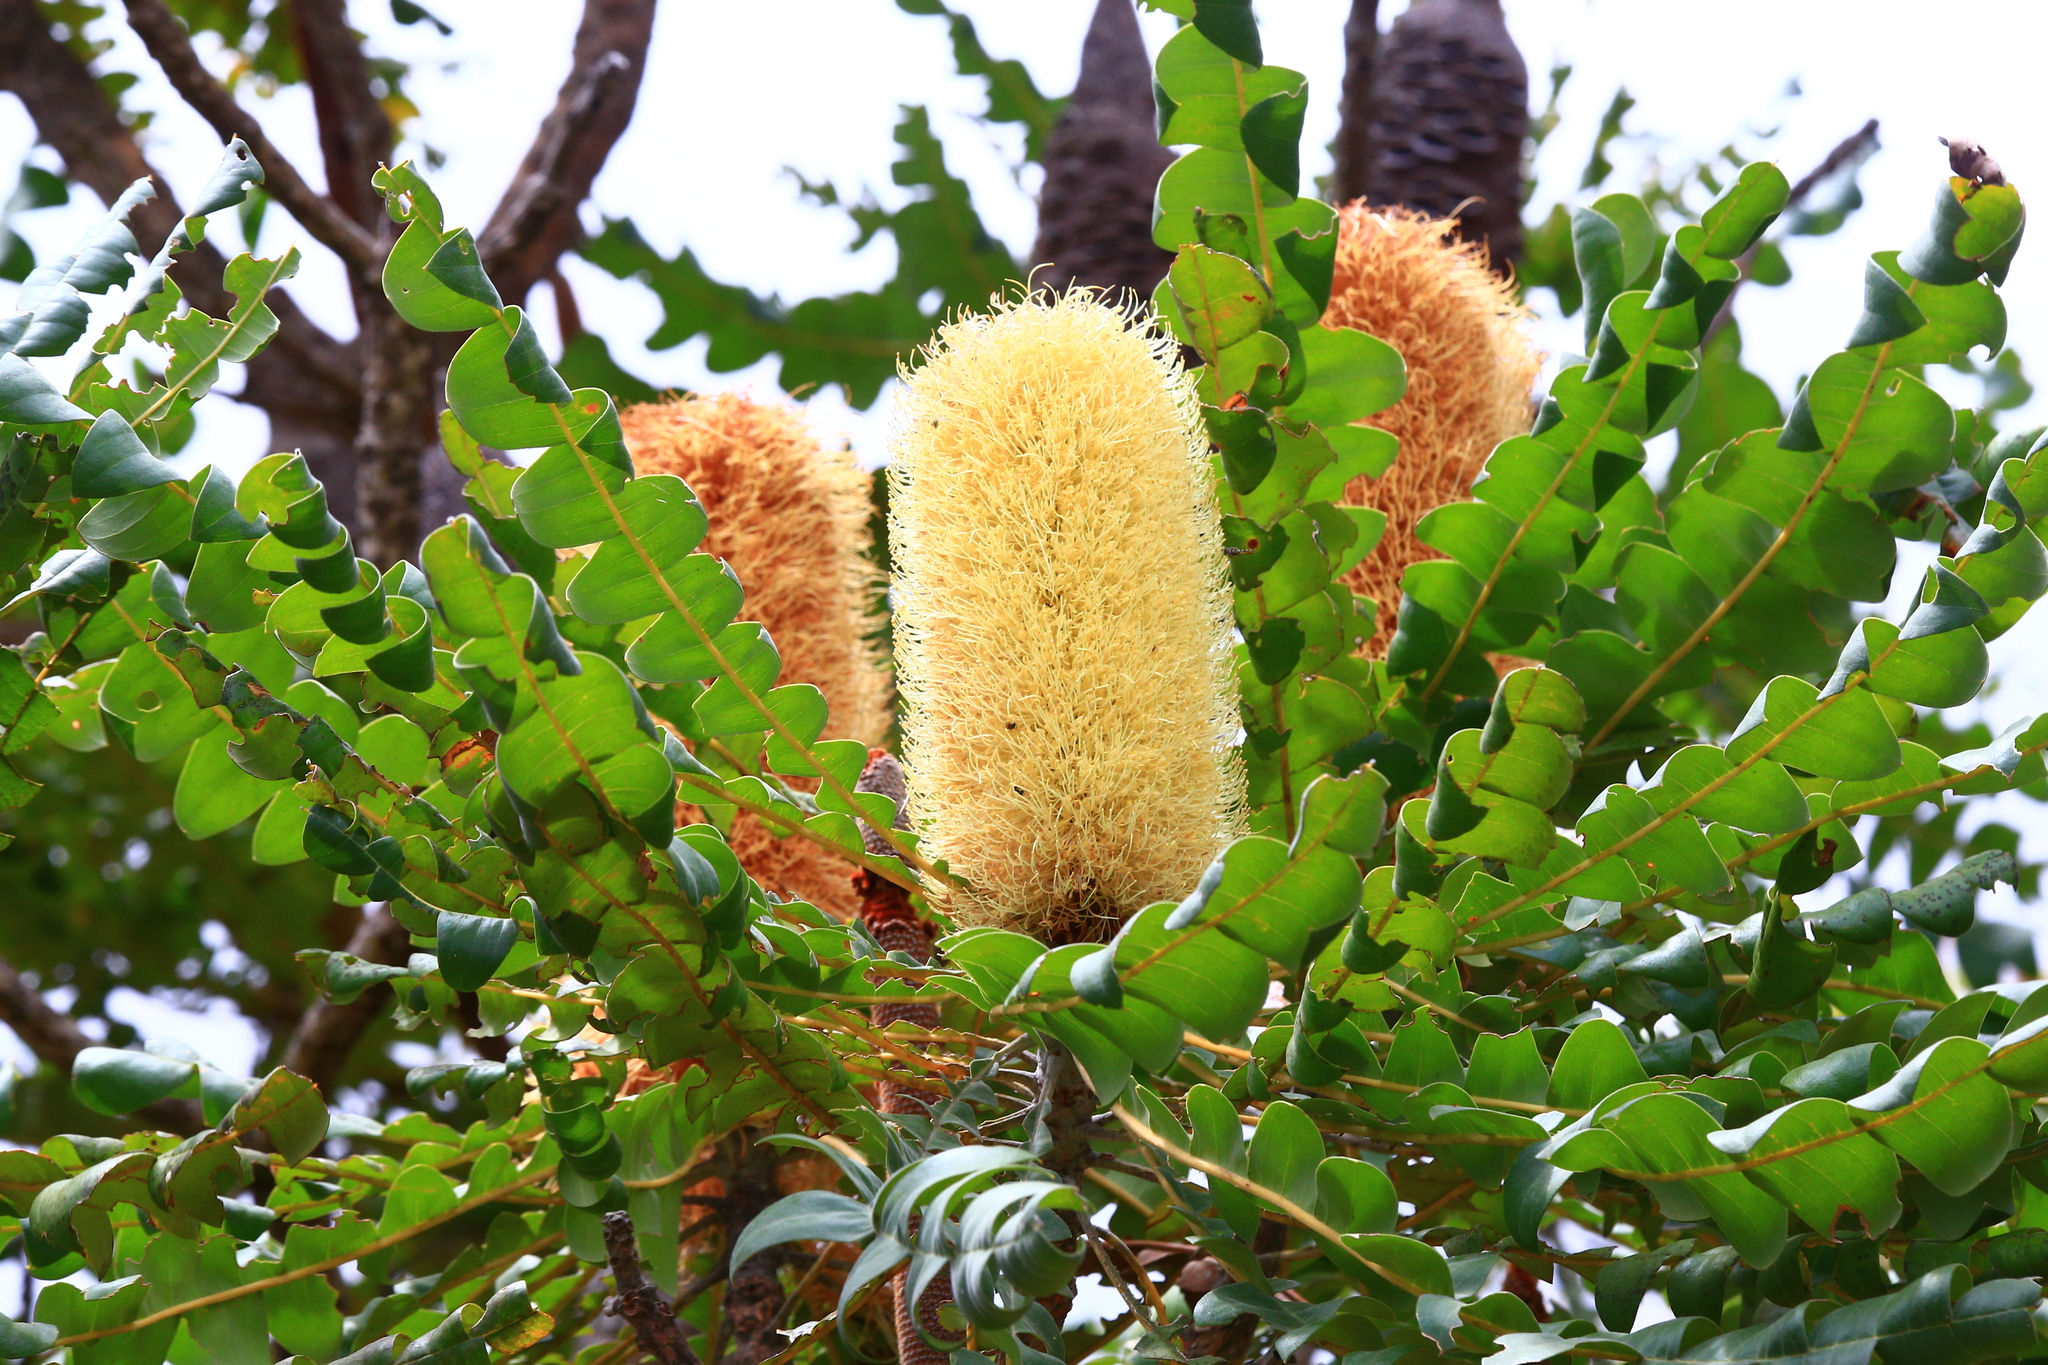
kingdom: Plantae
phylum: Tracheophyta
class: Magnoliopsida
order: Proteales
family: Proteaceae
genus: Banksia
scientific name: Banksia grandis
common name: Giant banksia
